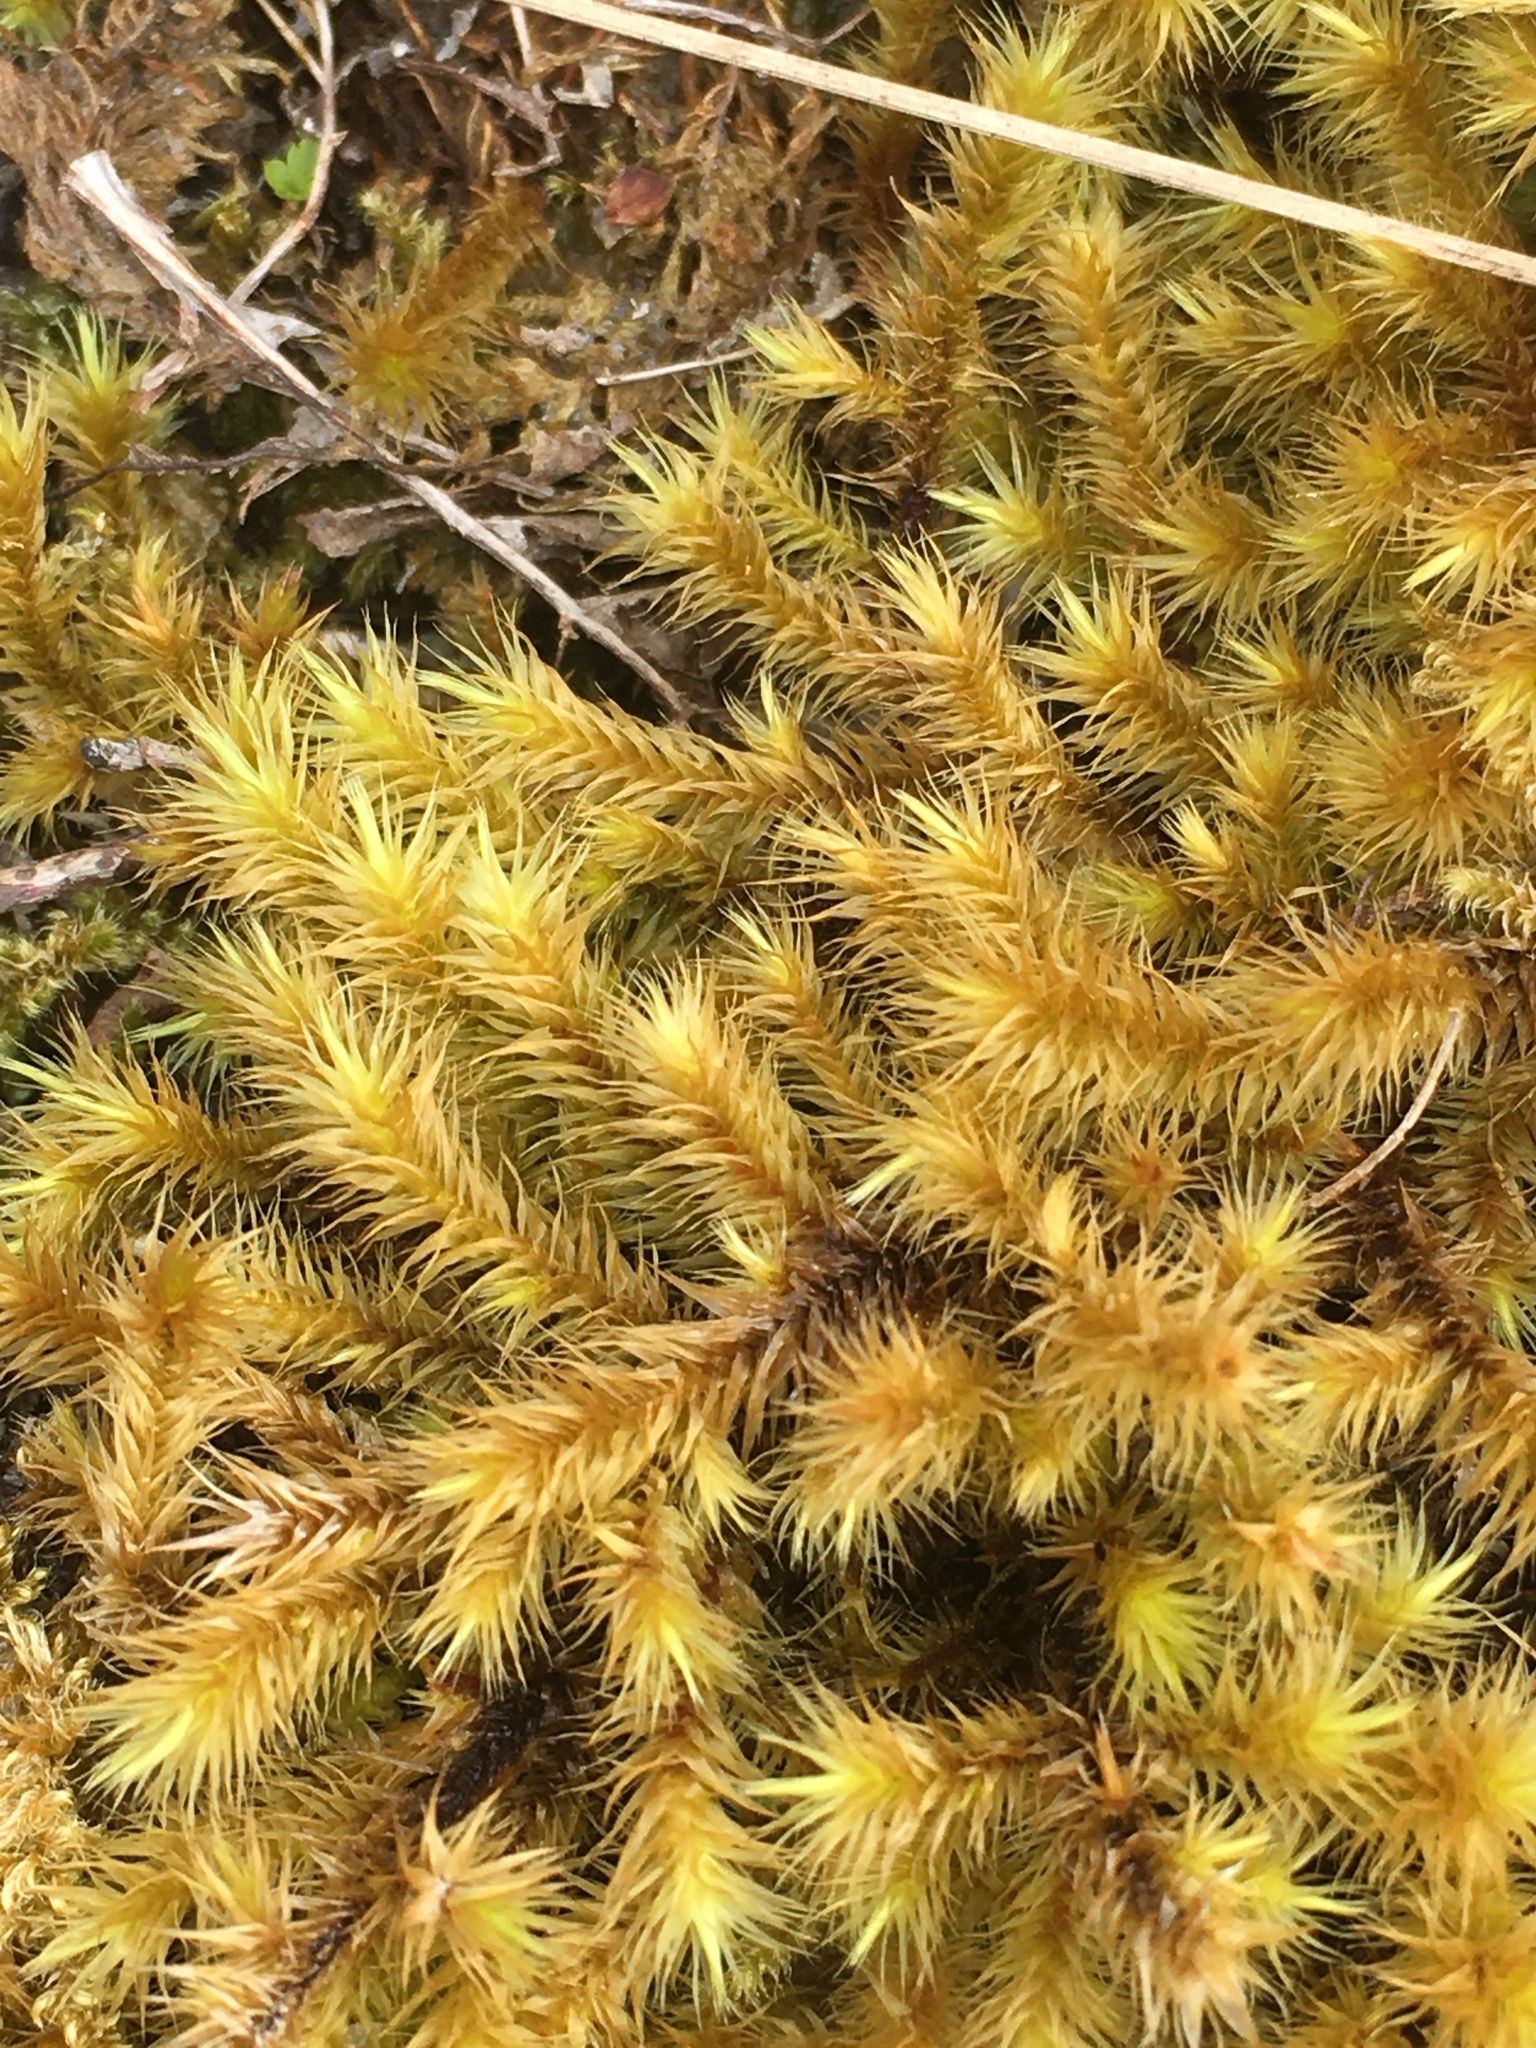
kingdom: Plantae
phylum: Bryophyta
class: Bryopsida
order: Bartramiales
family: Bartramiaceae
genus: Breutelia
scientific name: Breutelia chrysocoma
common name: Bottle-brush moss
